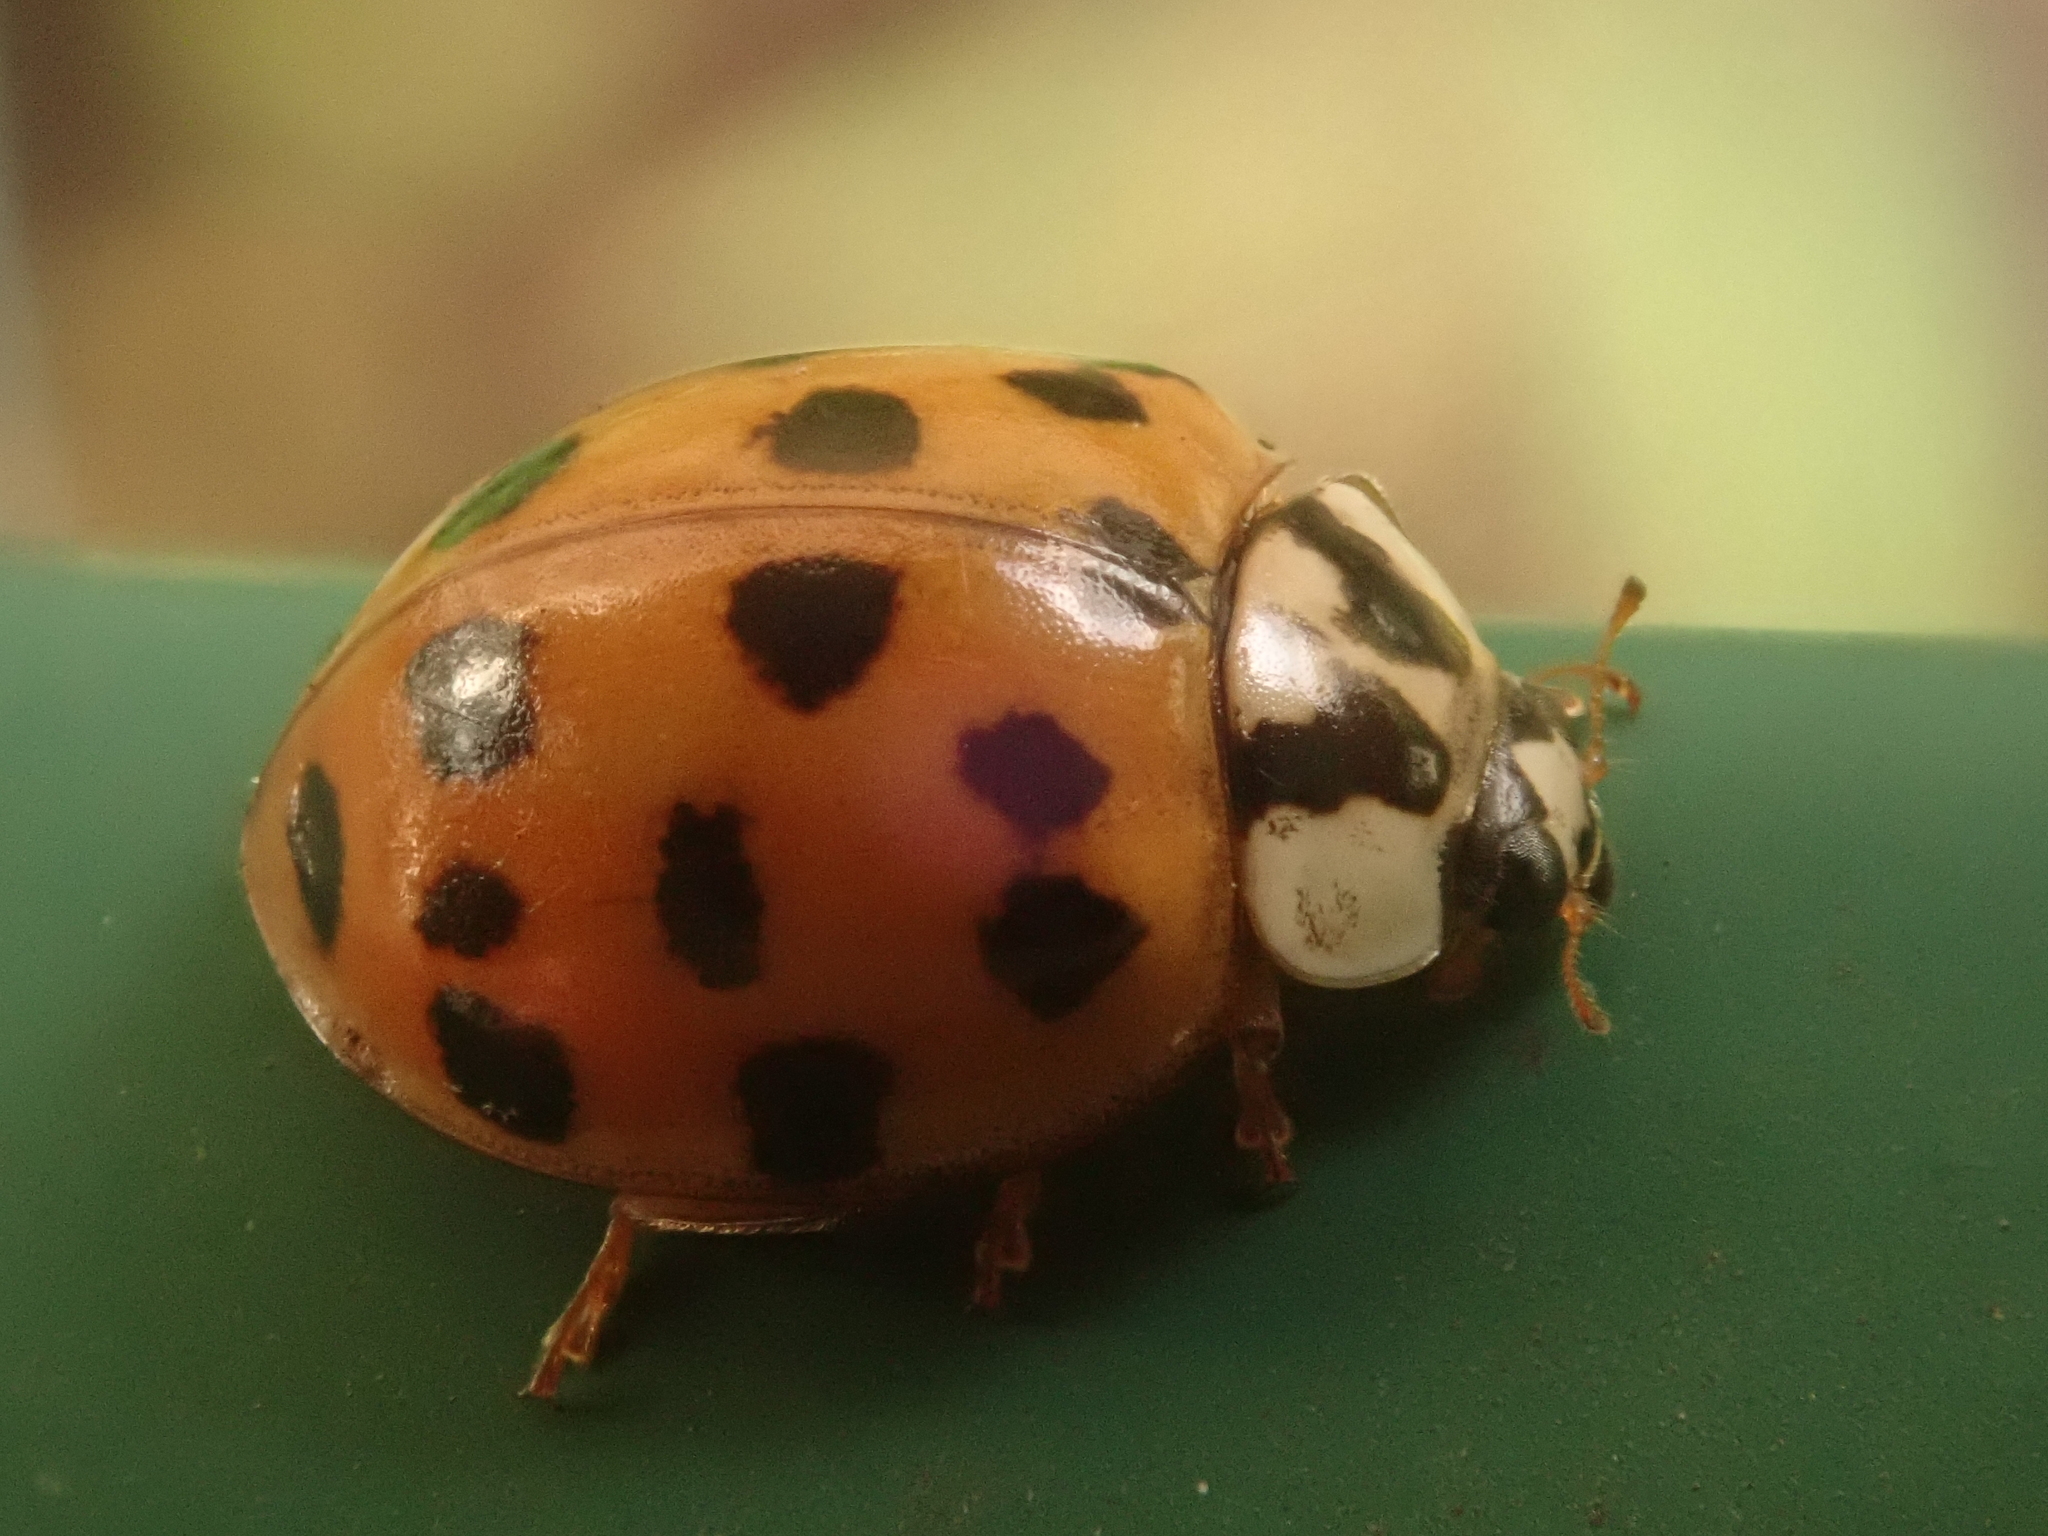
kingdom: Animalia
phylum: Arthropoda
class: Insecta
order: Coleoptera
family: Coccinellidae
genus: Harmonia
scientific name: Harmonia axyridis
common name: Harlequin ladybird
